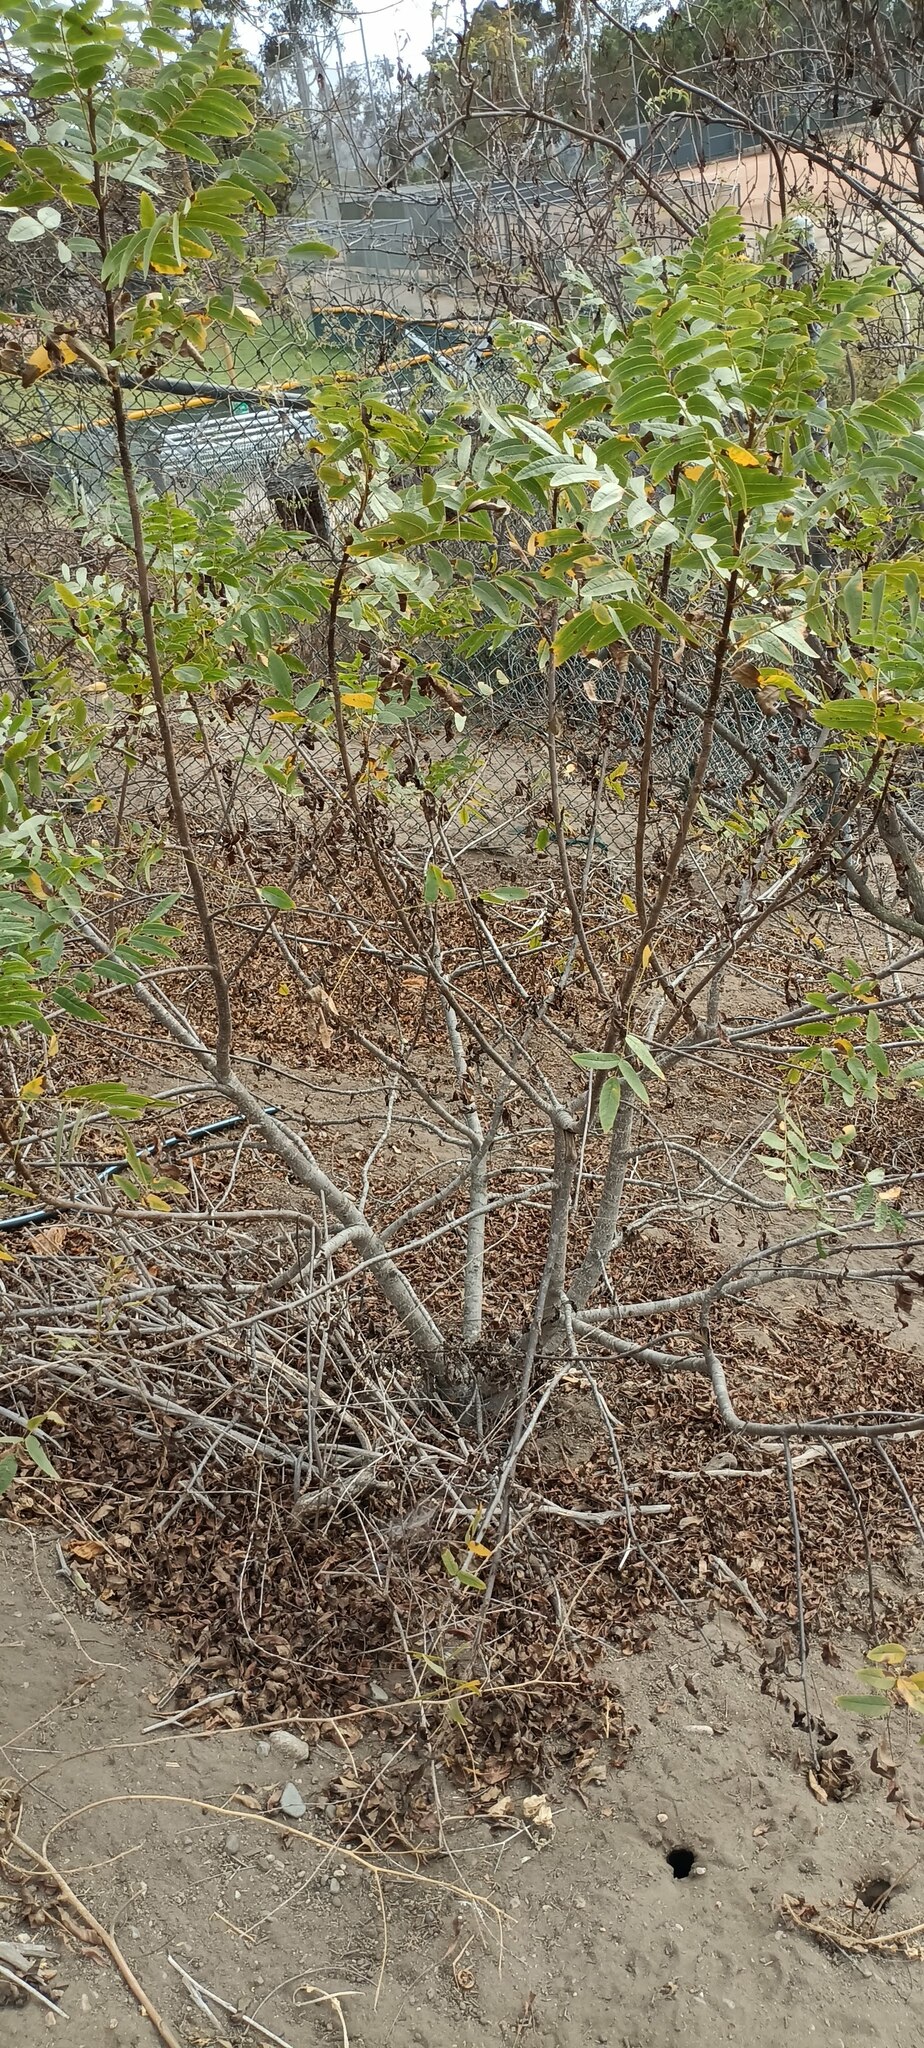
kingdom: Plantae
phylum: Tracheophyta
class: Magnoliopsida
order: Fagales
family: Juglandaceae
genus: Juglans
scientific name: Juglans californica
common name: Southern california black walnut
